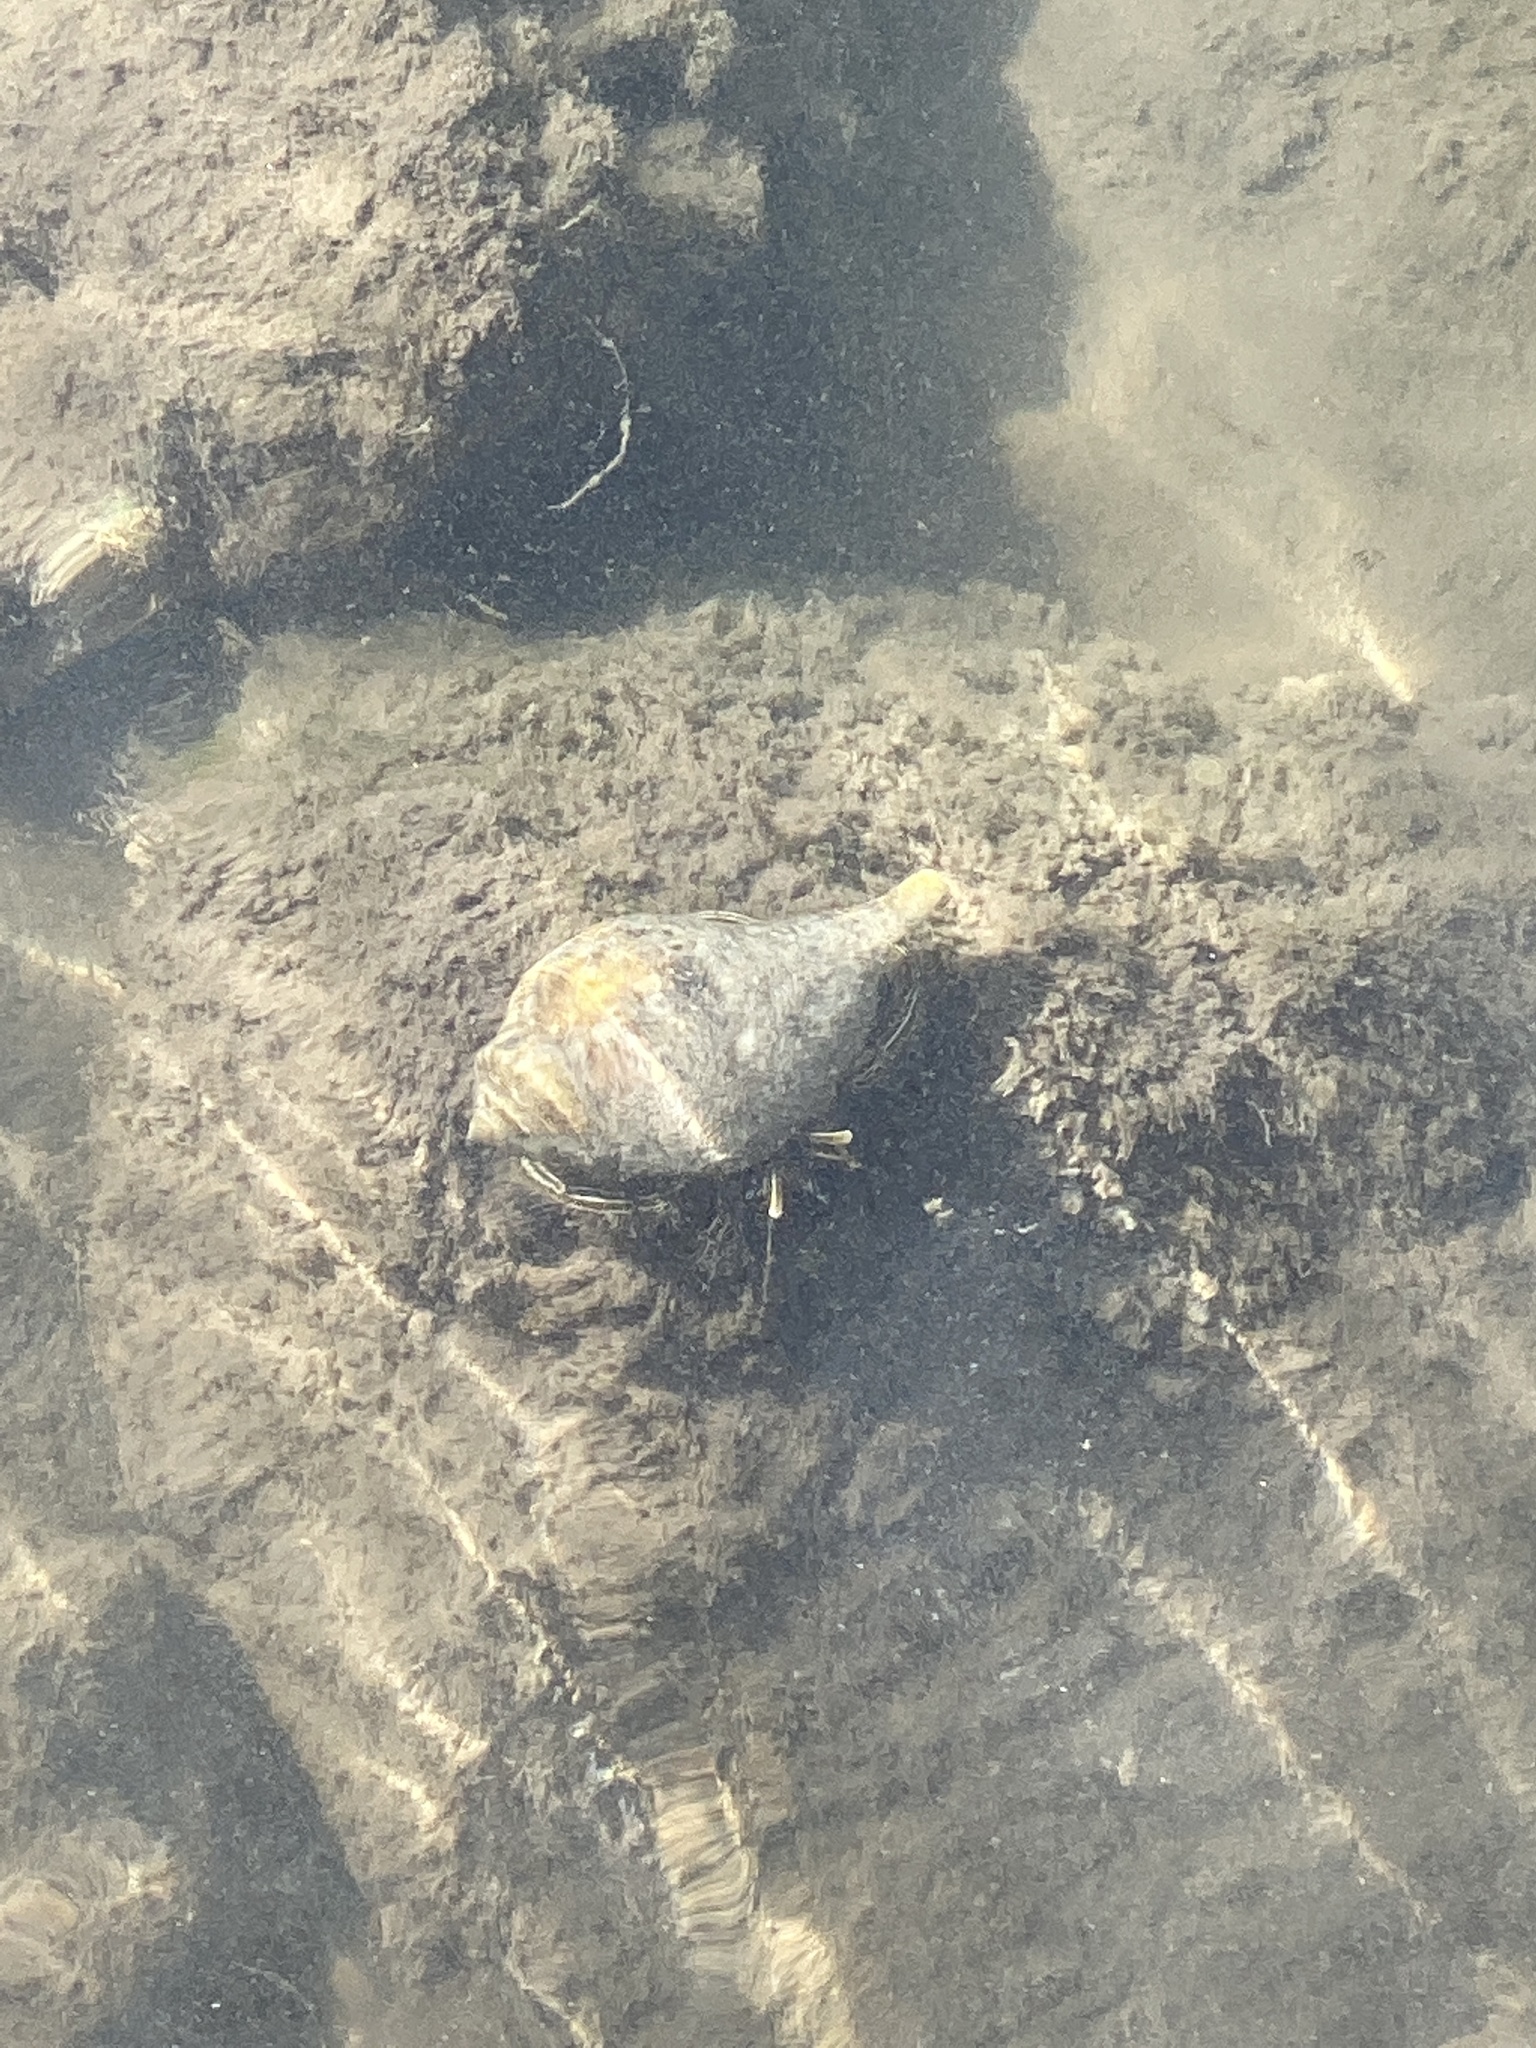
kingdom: Animalia
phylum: Arthropoda
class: Malacostraca
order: Decapoda
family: Diogenidae
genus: Clibanarius
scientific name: Clibanarius vittatus
